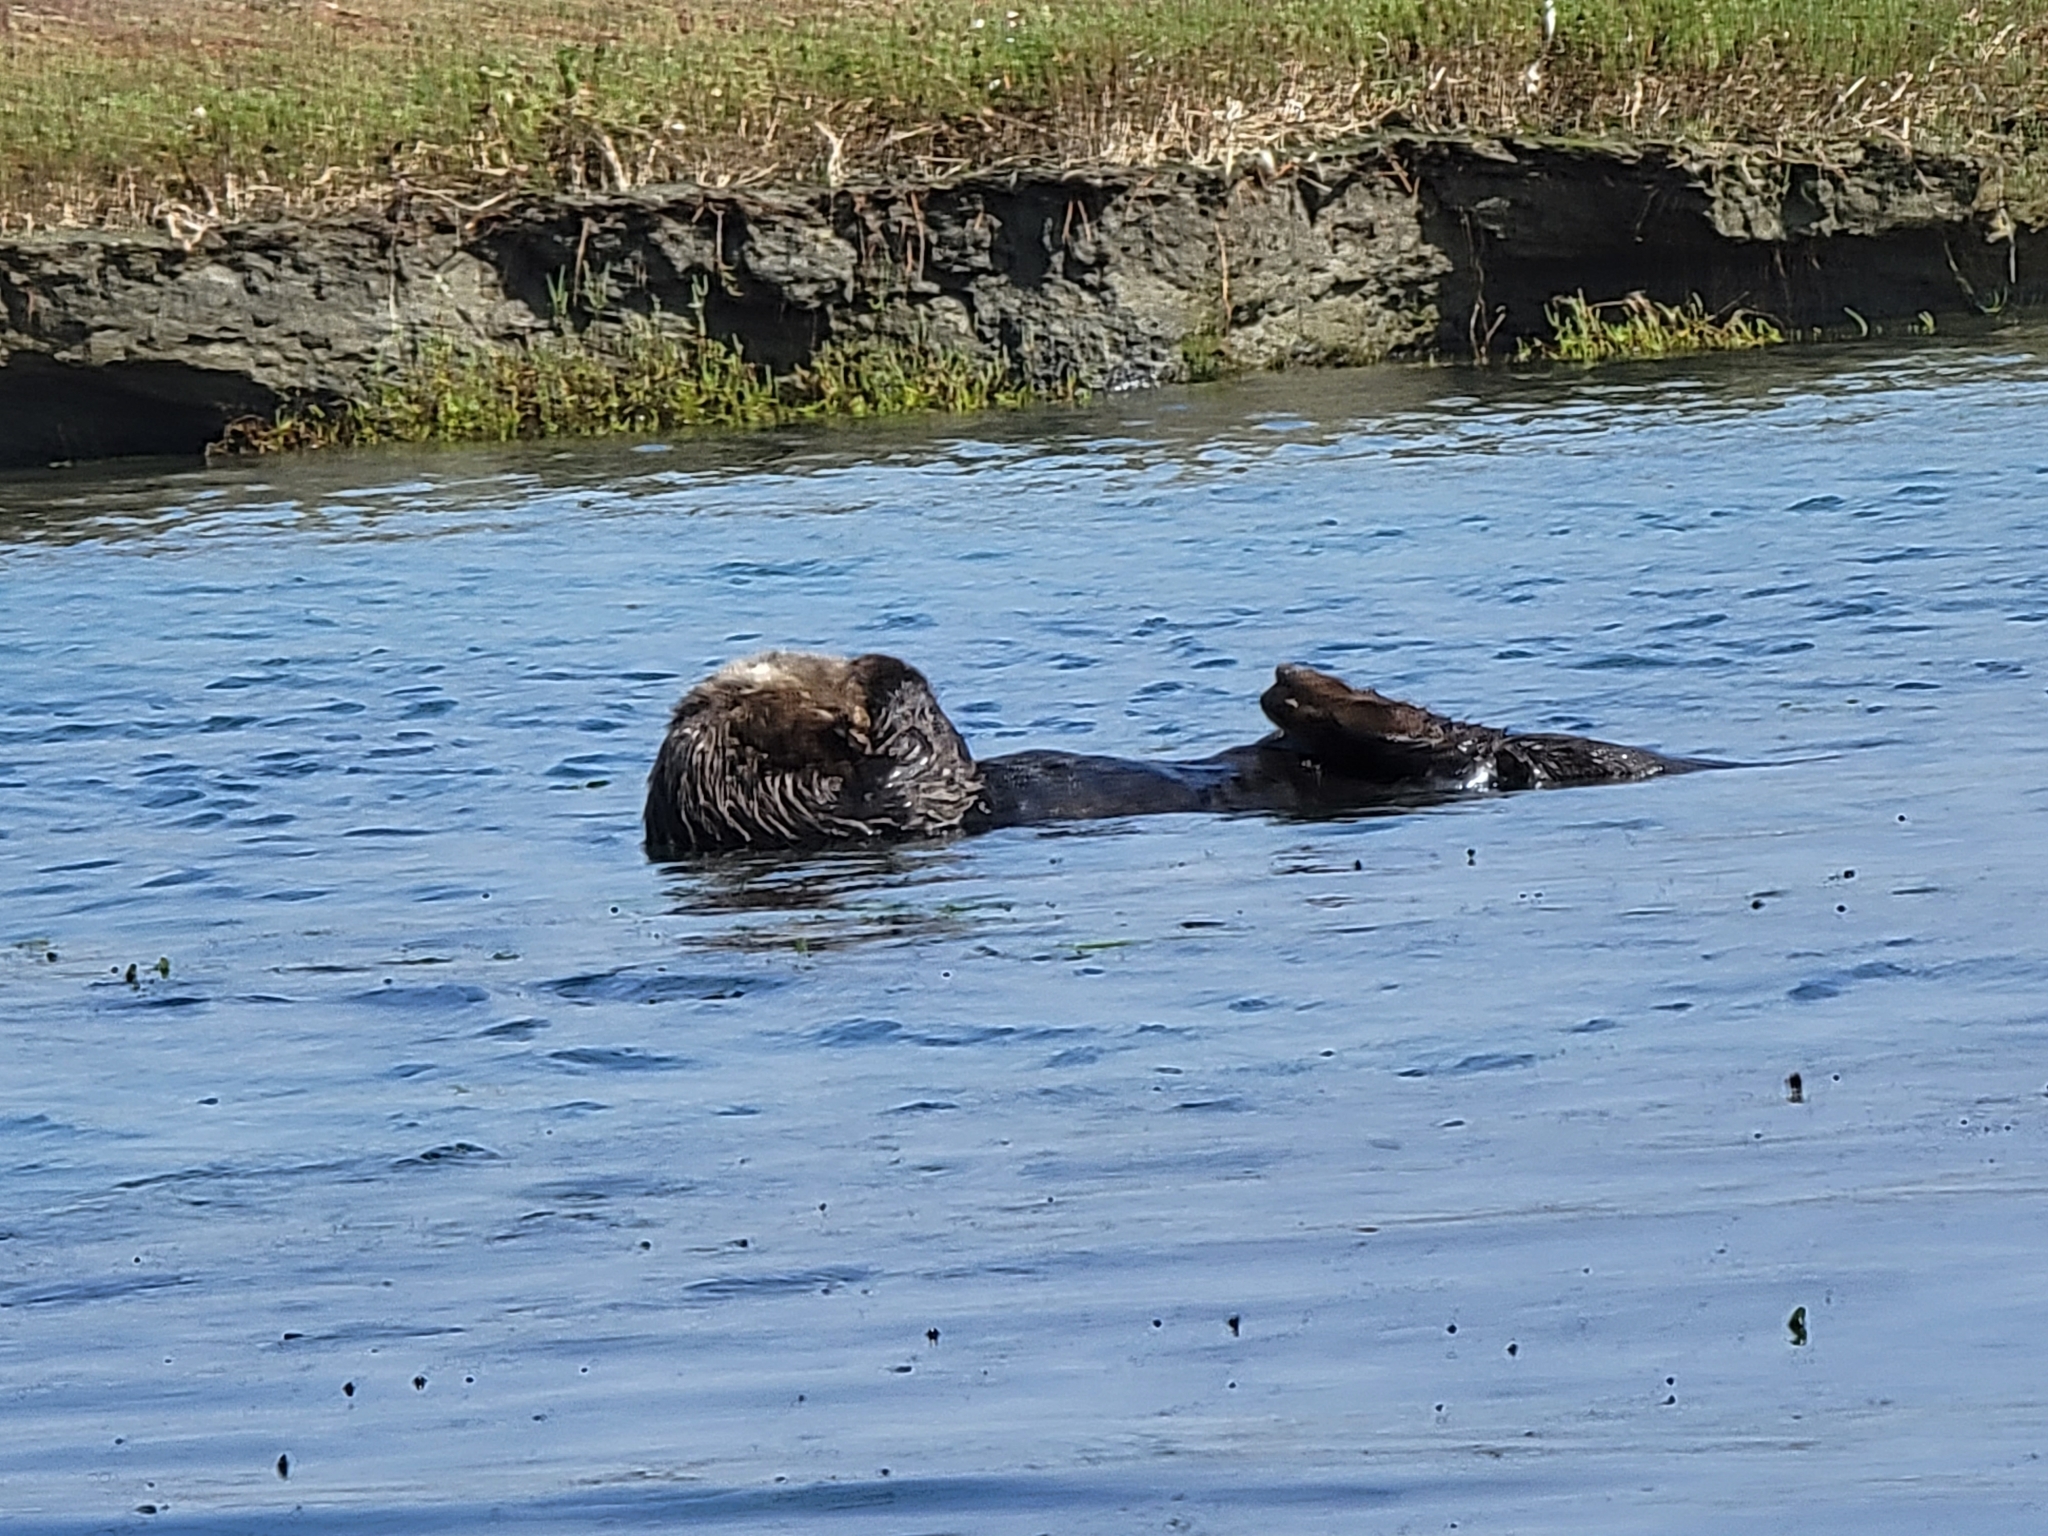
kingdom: Animalia
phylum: Chordata
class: Mammalia
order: Carnivora
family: Mustelidae
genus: Enhydra
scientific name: Enhydra lutris
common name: Sea otter
